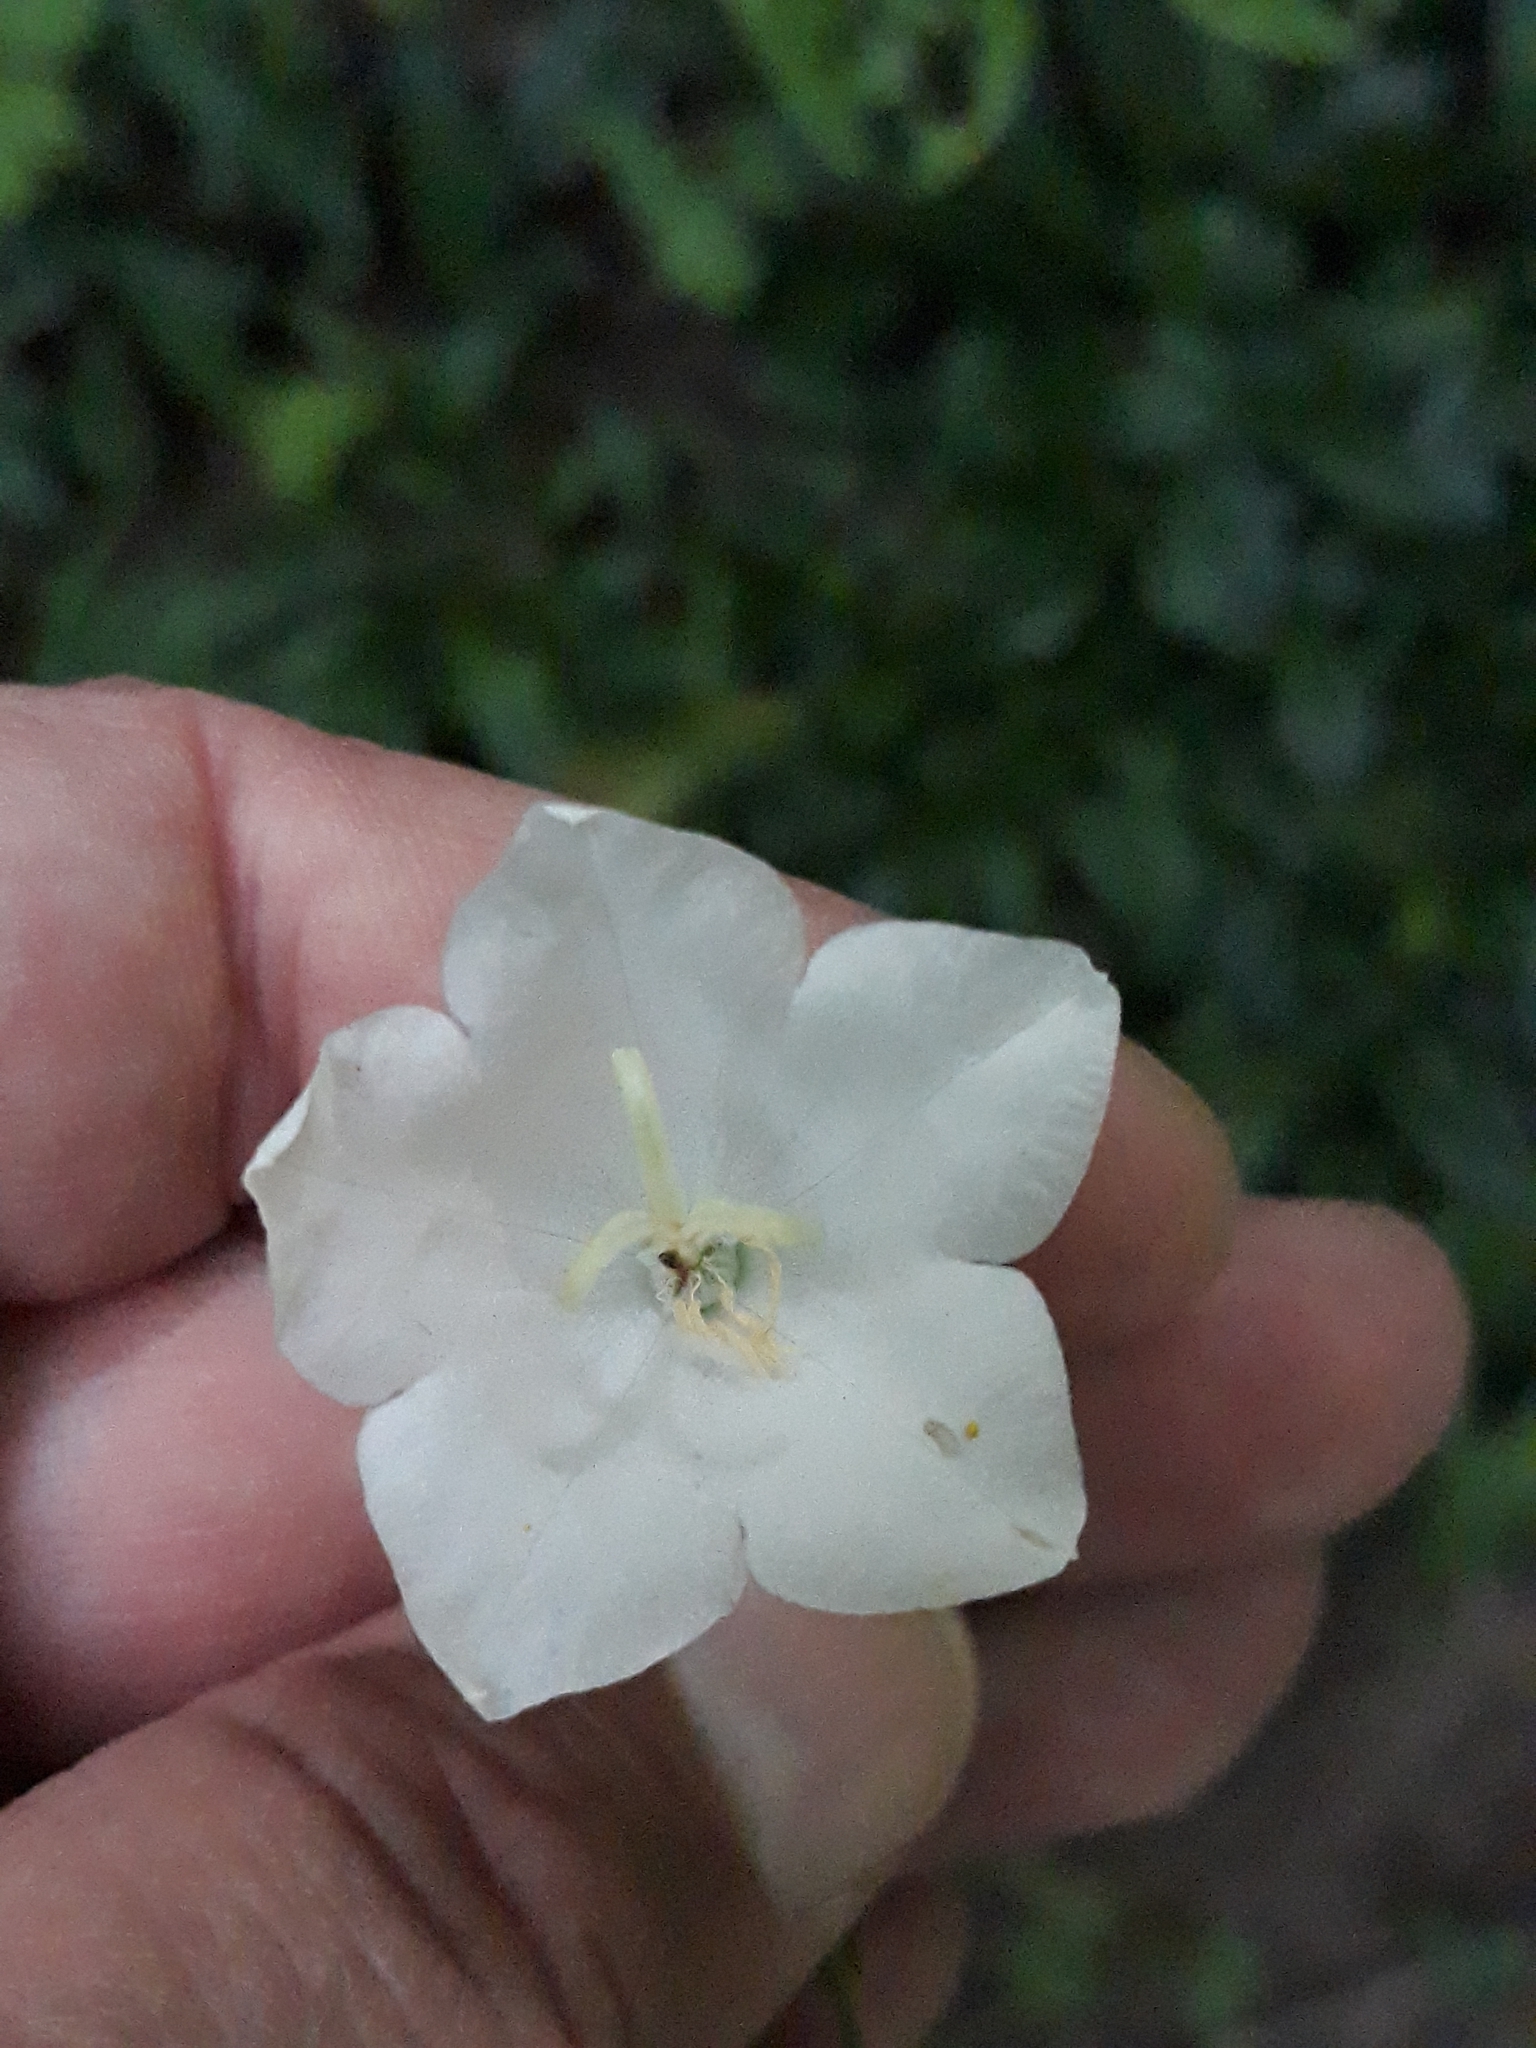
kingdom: Plantae
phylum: Tracheophyta
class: Magnoliopsida
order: Asterales
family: Campanulaceae
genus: Campanula
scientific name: Campanula persicifolia
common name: Peach-leaved bellflower
